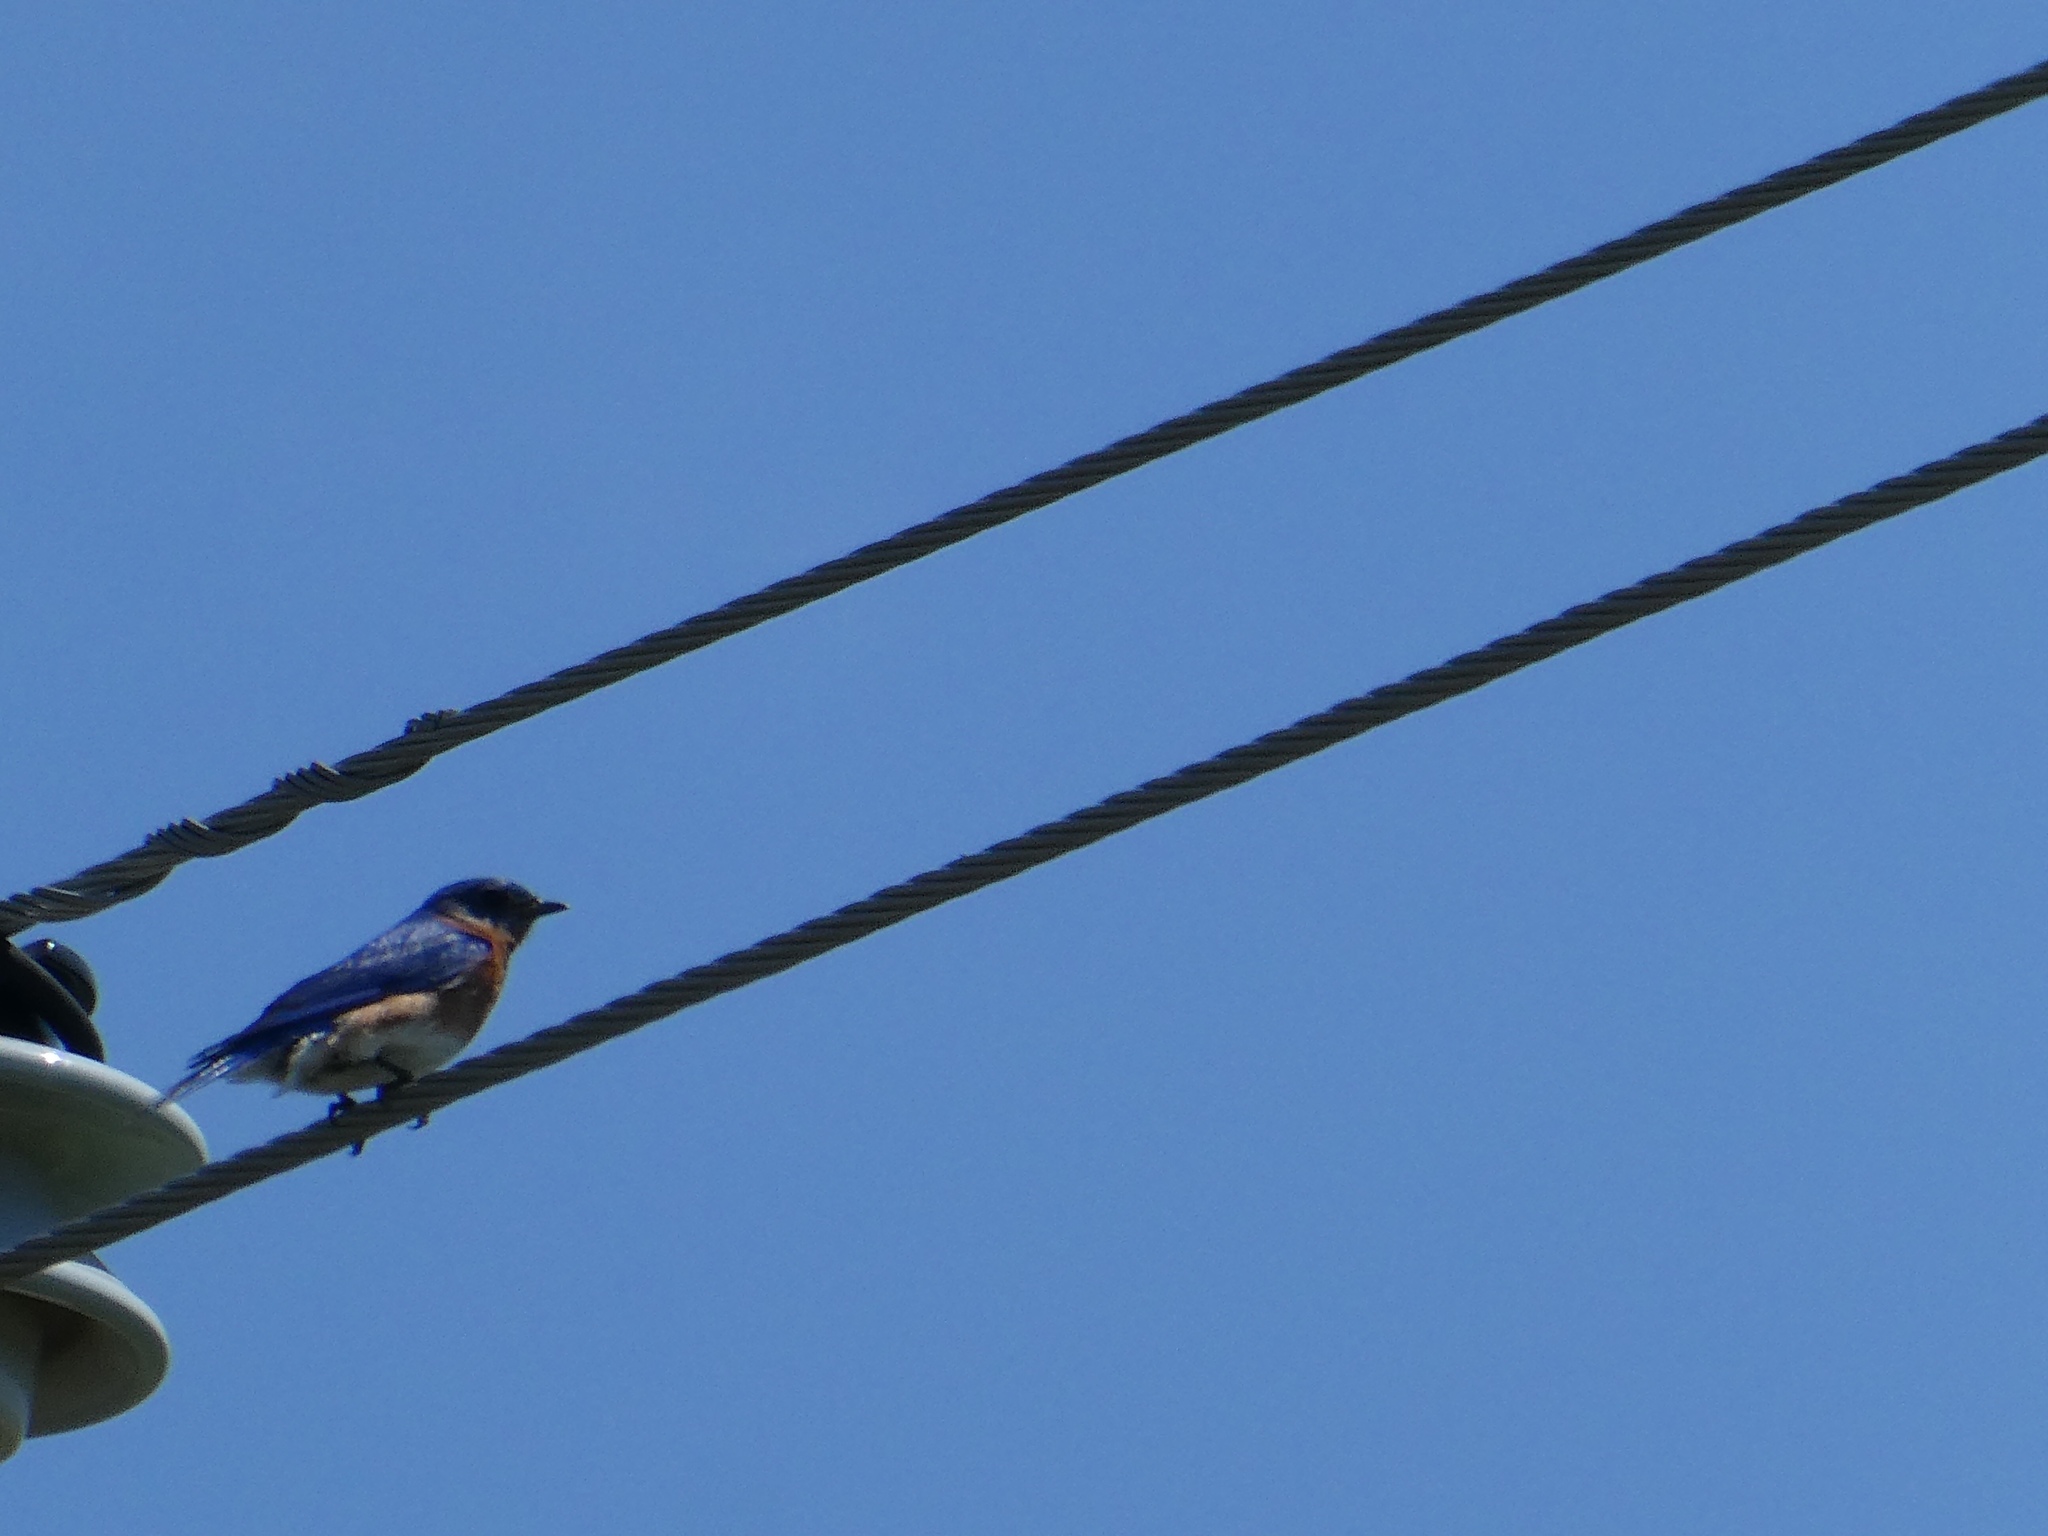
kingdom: Animalia
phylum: Chordata
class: Aves
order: Passeriformes
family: Turdidae
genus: Sialia
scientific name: Sialia sialis
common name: Eastern bluebird
